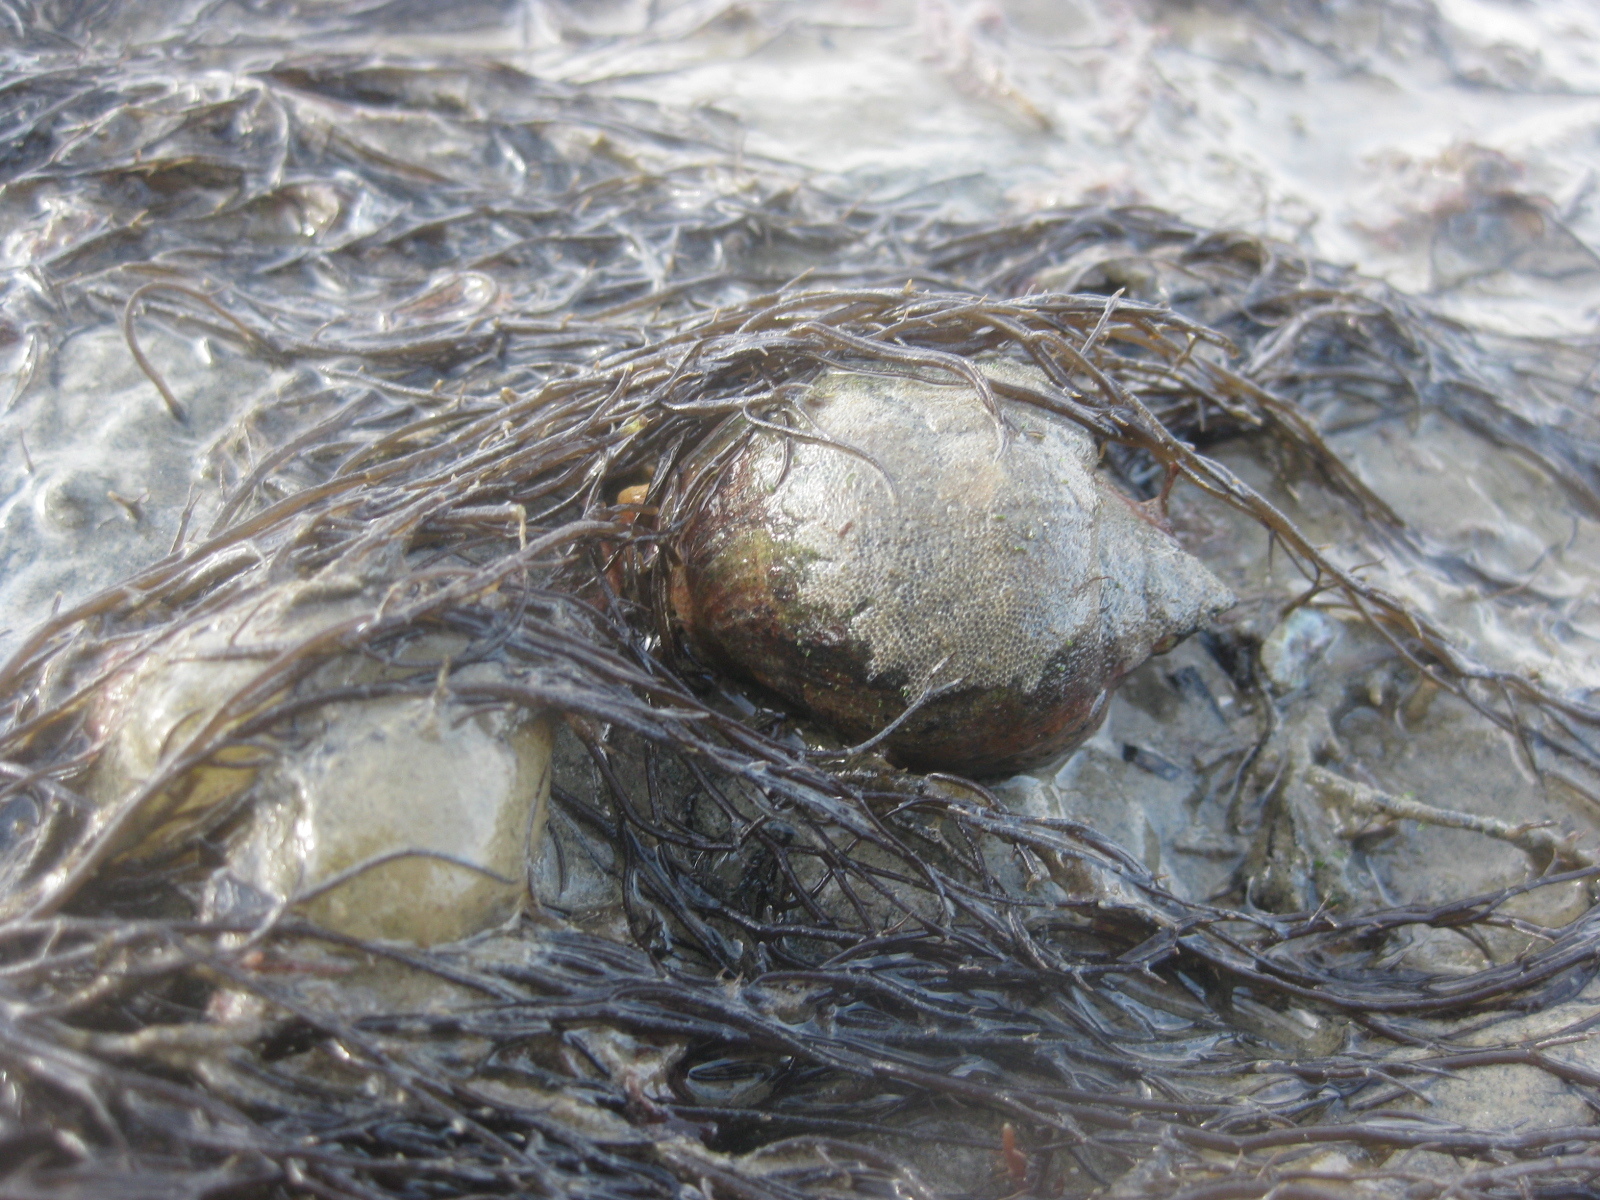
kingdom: Animalia
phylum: Mollusca
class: Gastropoda
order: Neogastropoda
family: Cominellidae
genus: Cominella
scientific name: Cominella adspersa
